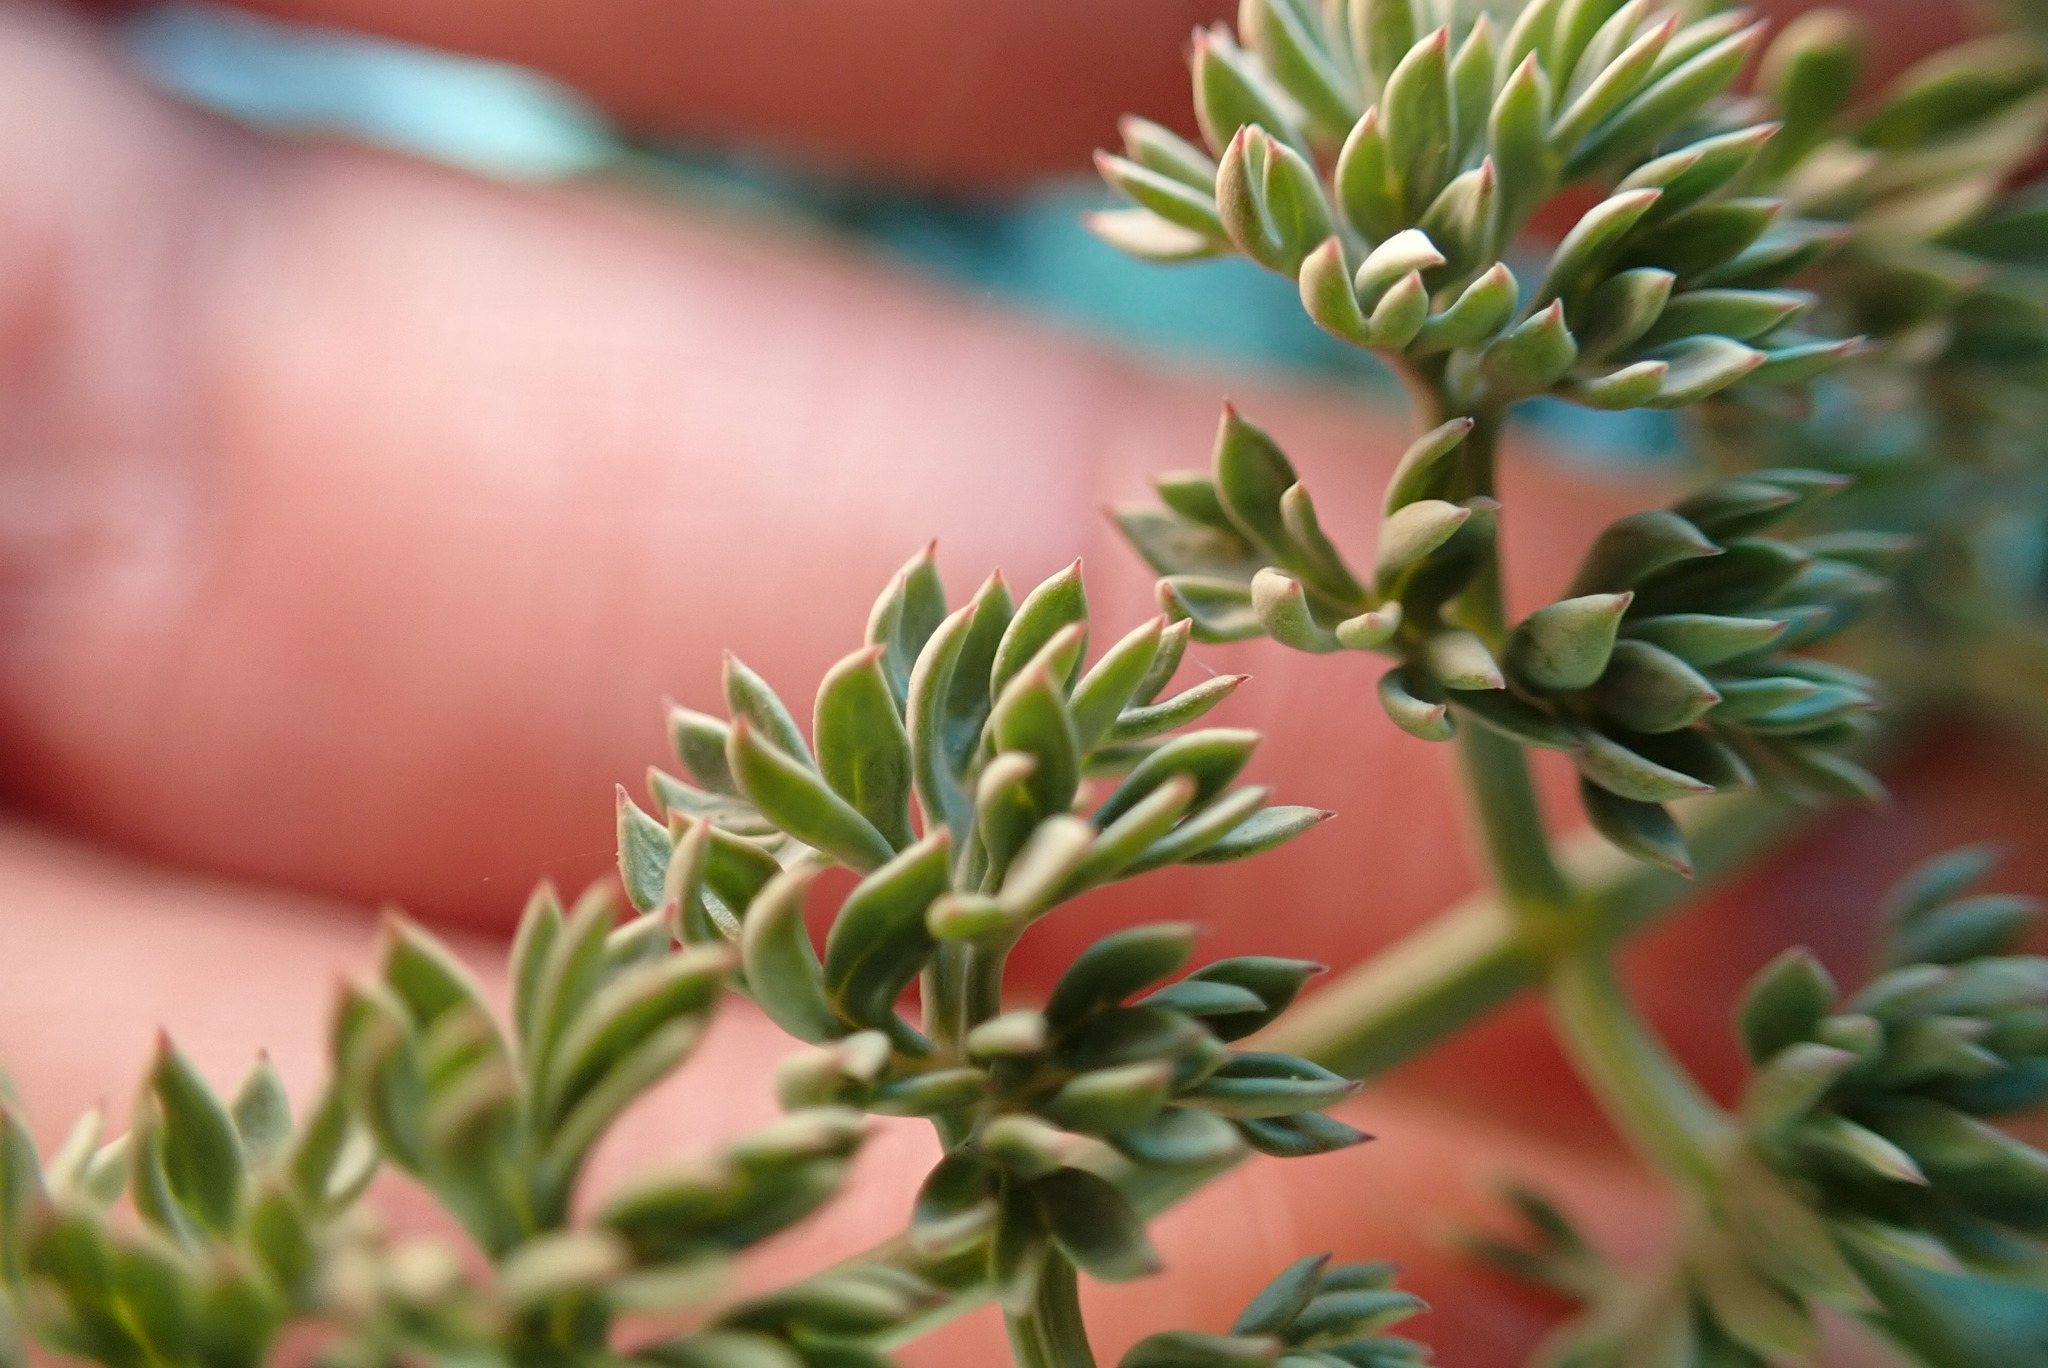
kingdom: Plantae
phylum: Tracheophyta
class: Magnoliopsida
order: Apiales
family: Apiaceae
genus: Lomatium
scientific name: Lomatium cuspidatum
